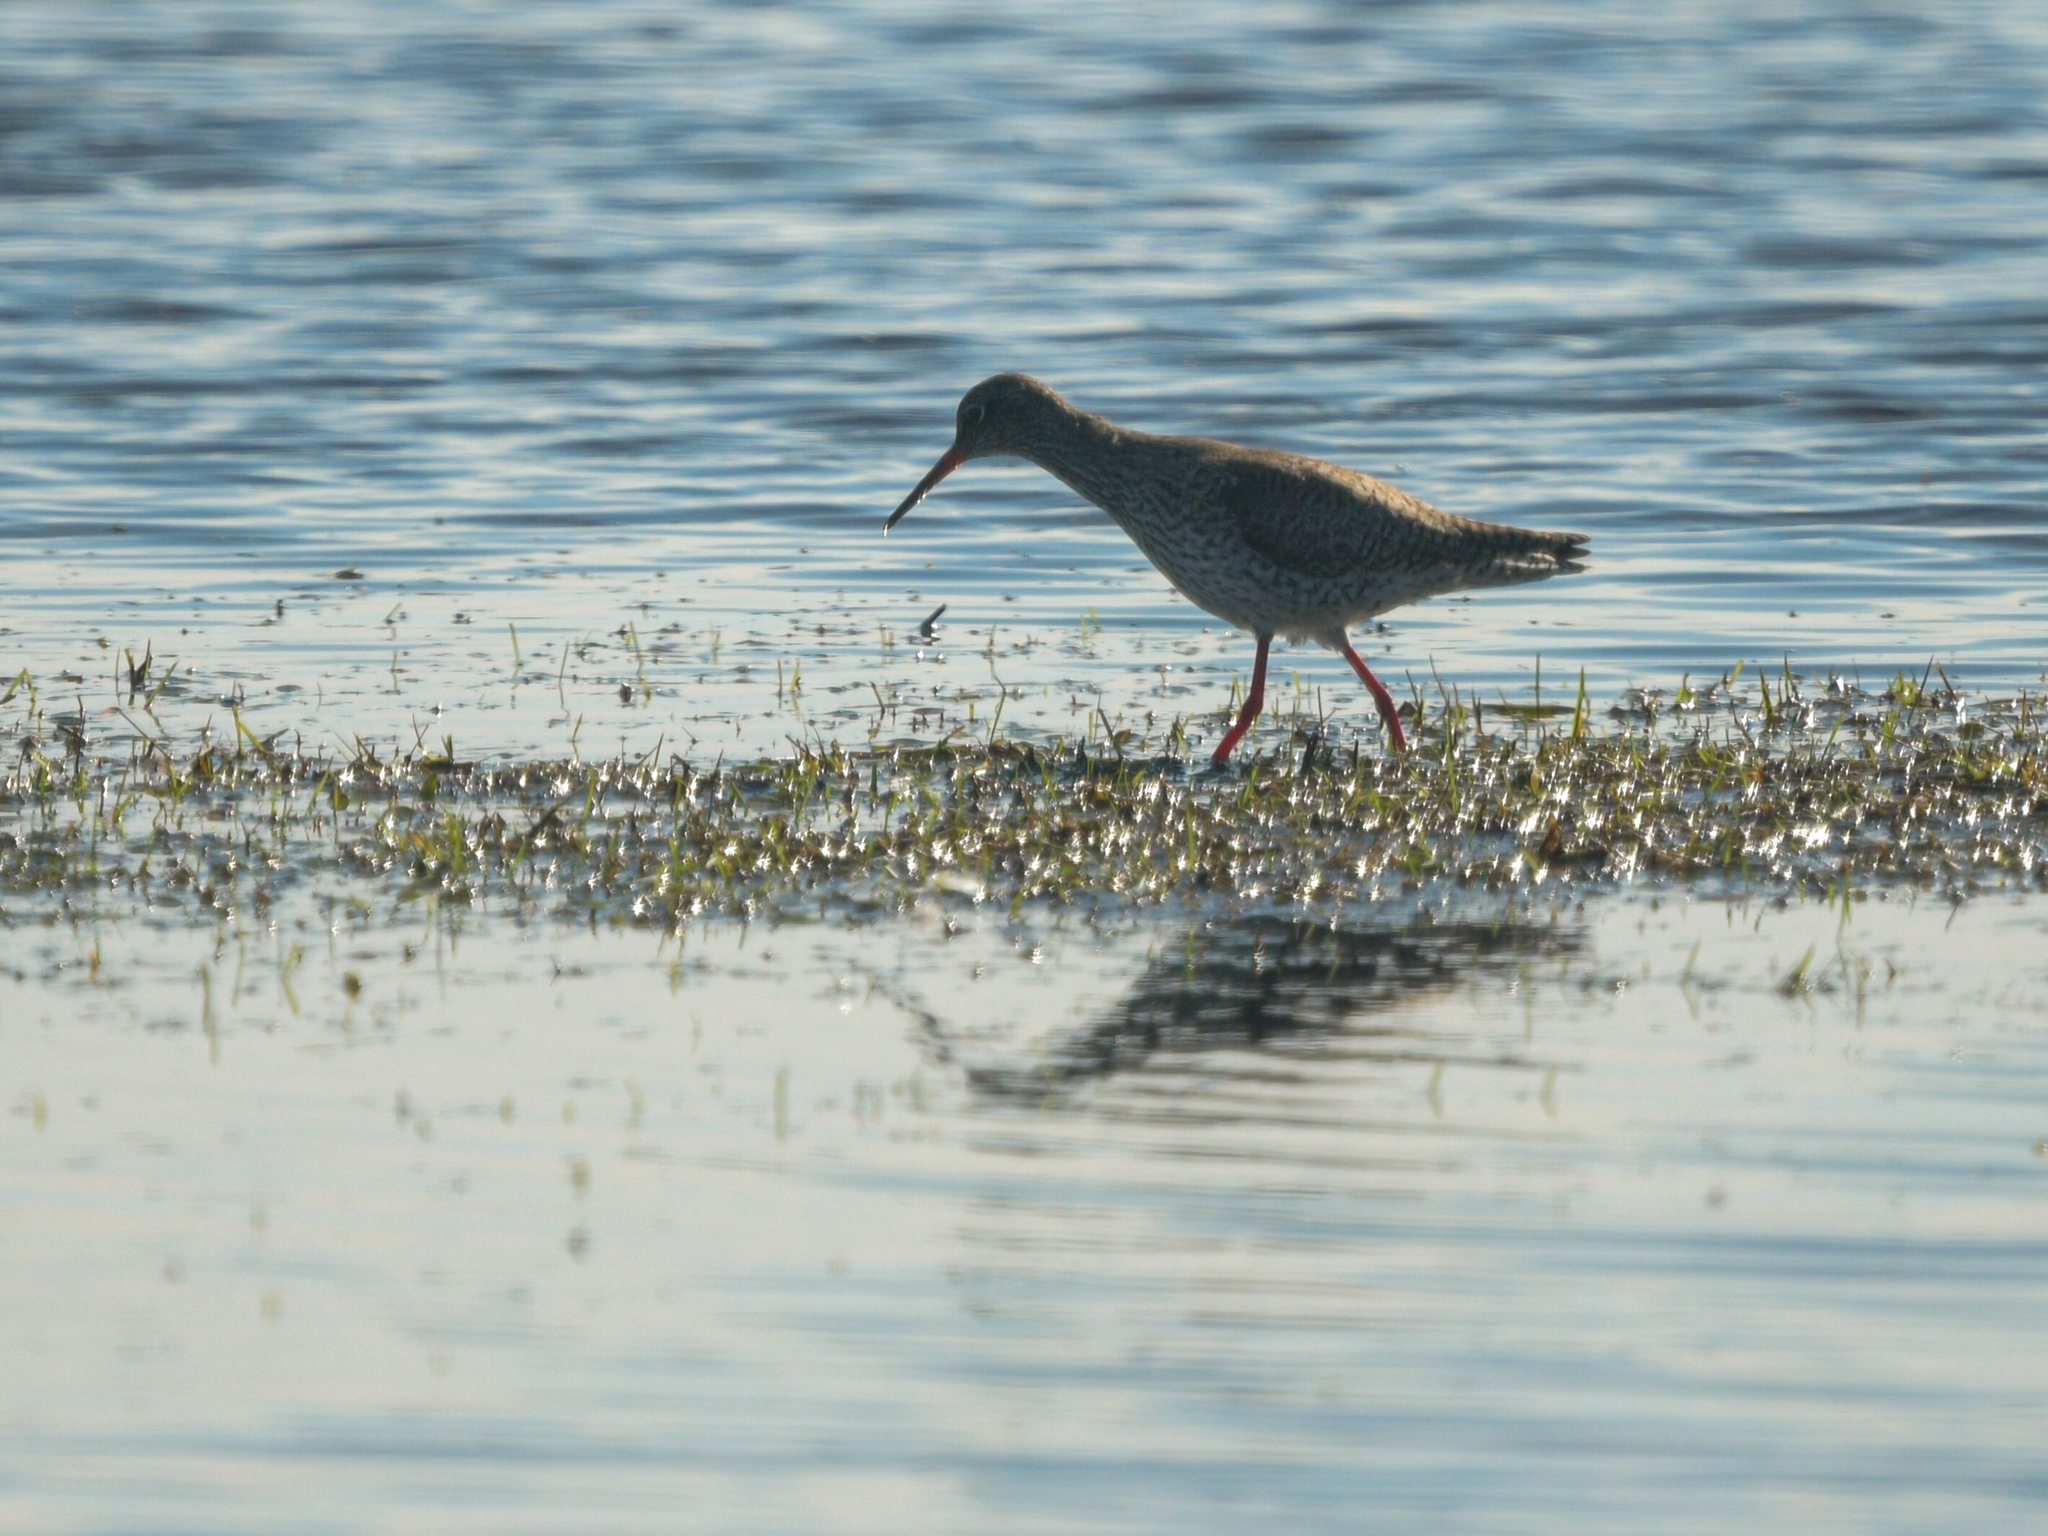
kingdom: Animalia
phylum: Chordata
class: Aves
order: Charadriiformes
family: Scolopacidae
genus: Tringa
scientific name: Tringa totanus
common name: Common redshank
